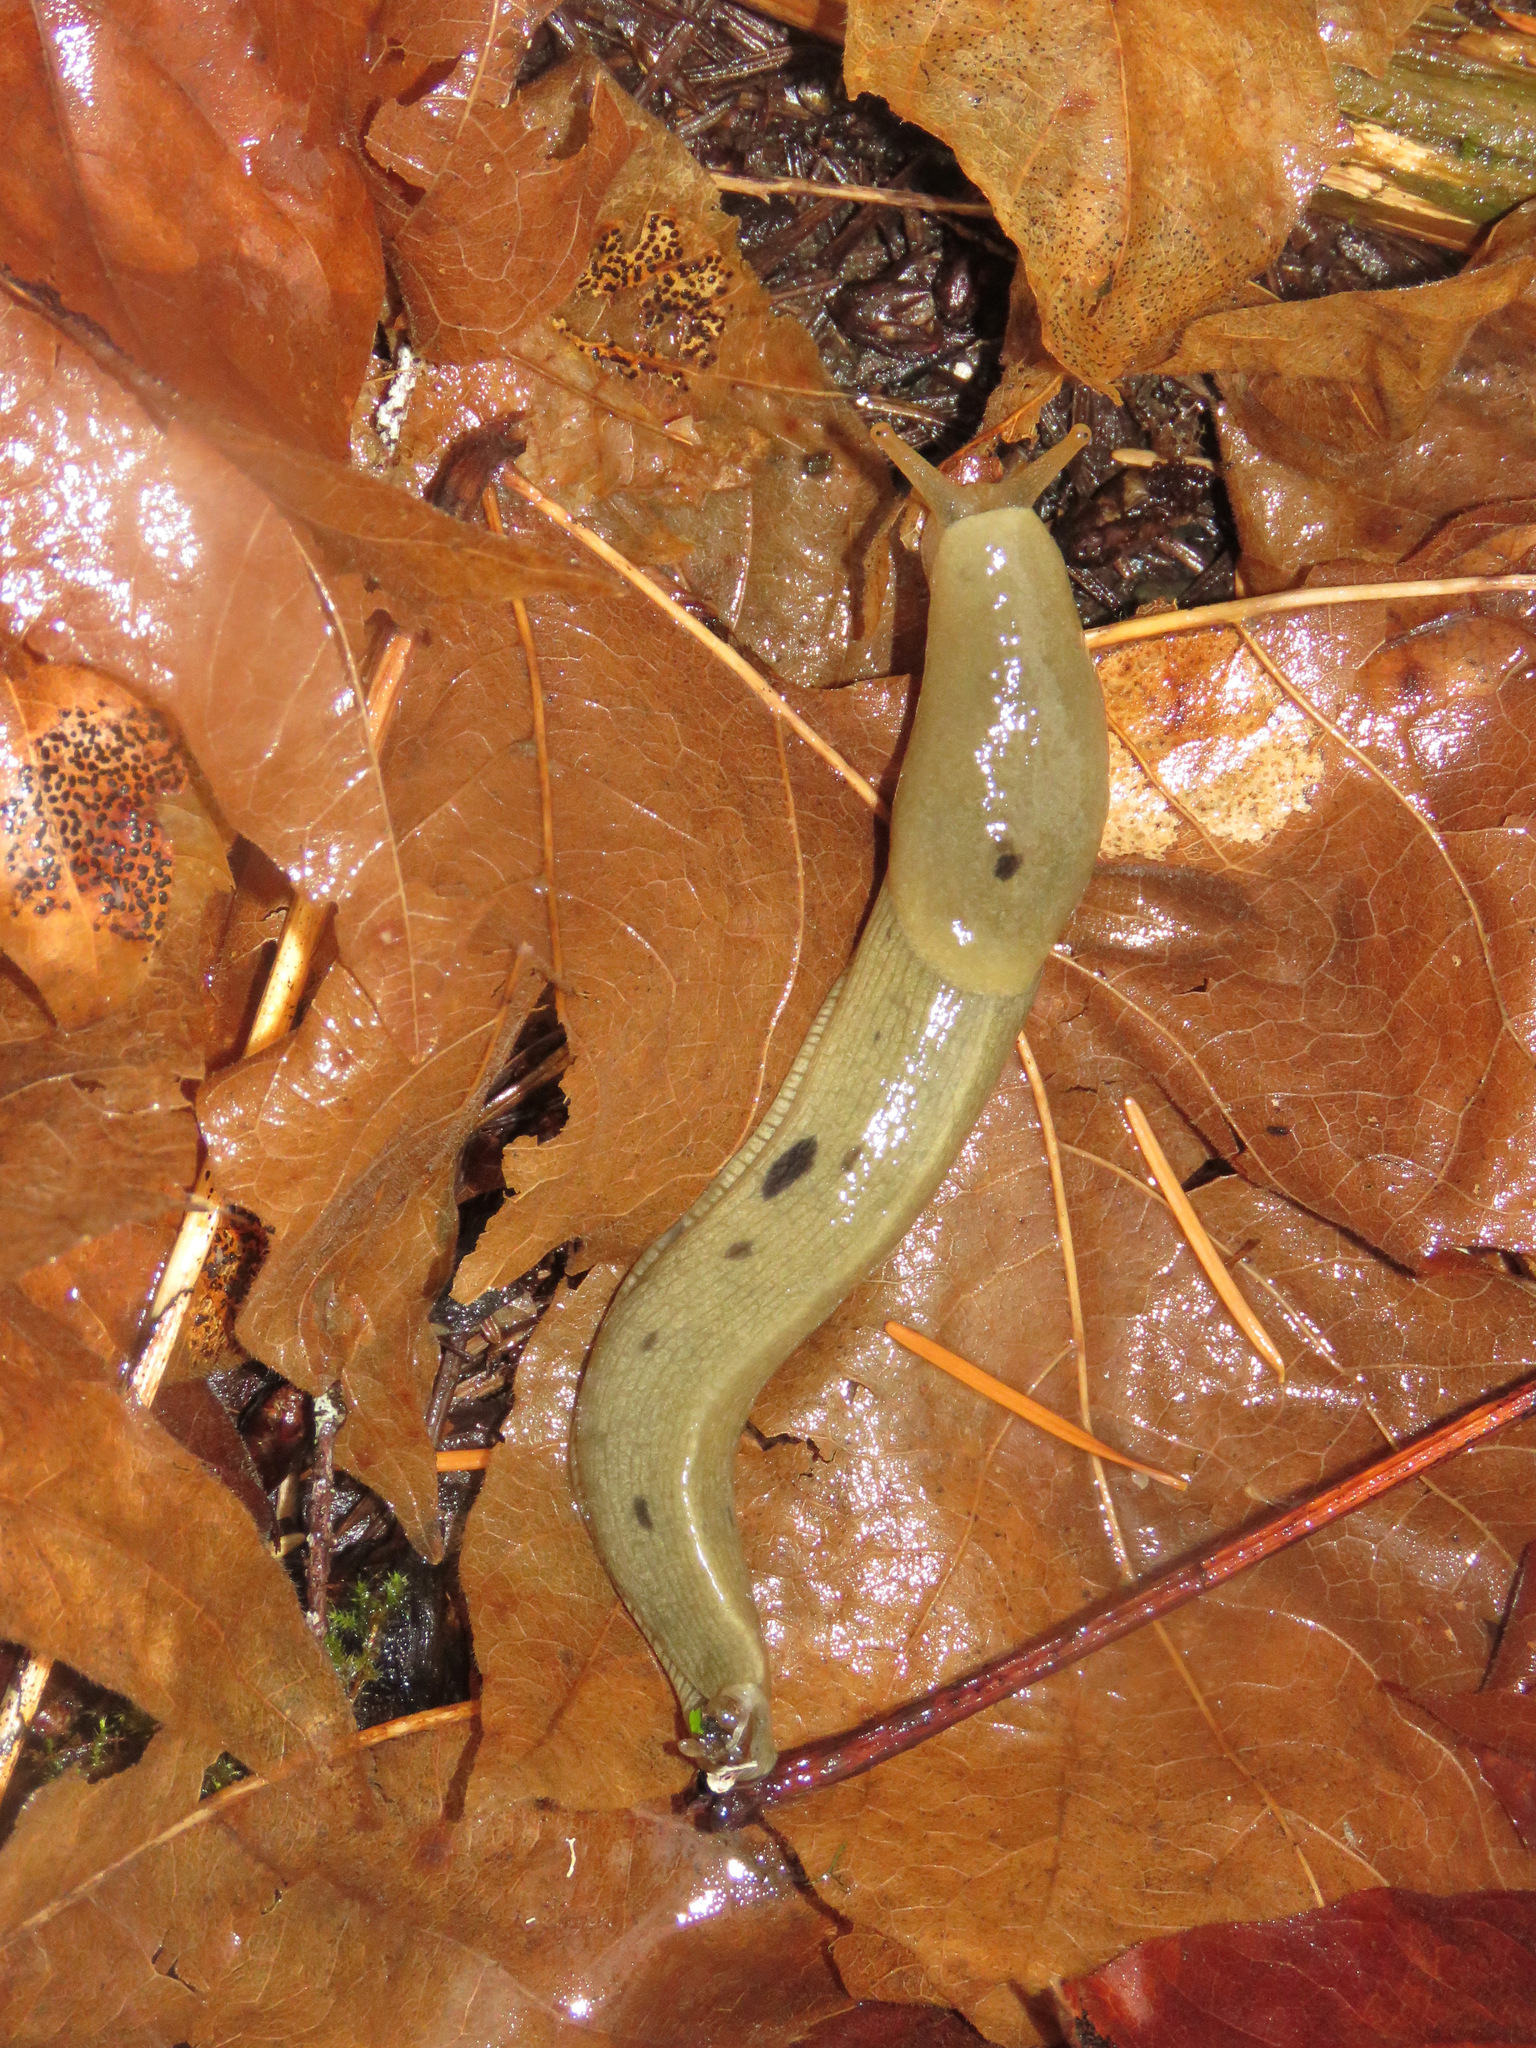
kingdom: Animalia
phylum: Mollusca
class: Gastropoda
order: Stylommatophora
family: Ariolimacidae
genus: Ariolimax
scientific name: Ariolimax columbianus
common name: Pacific banana slug
